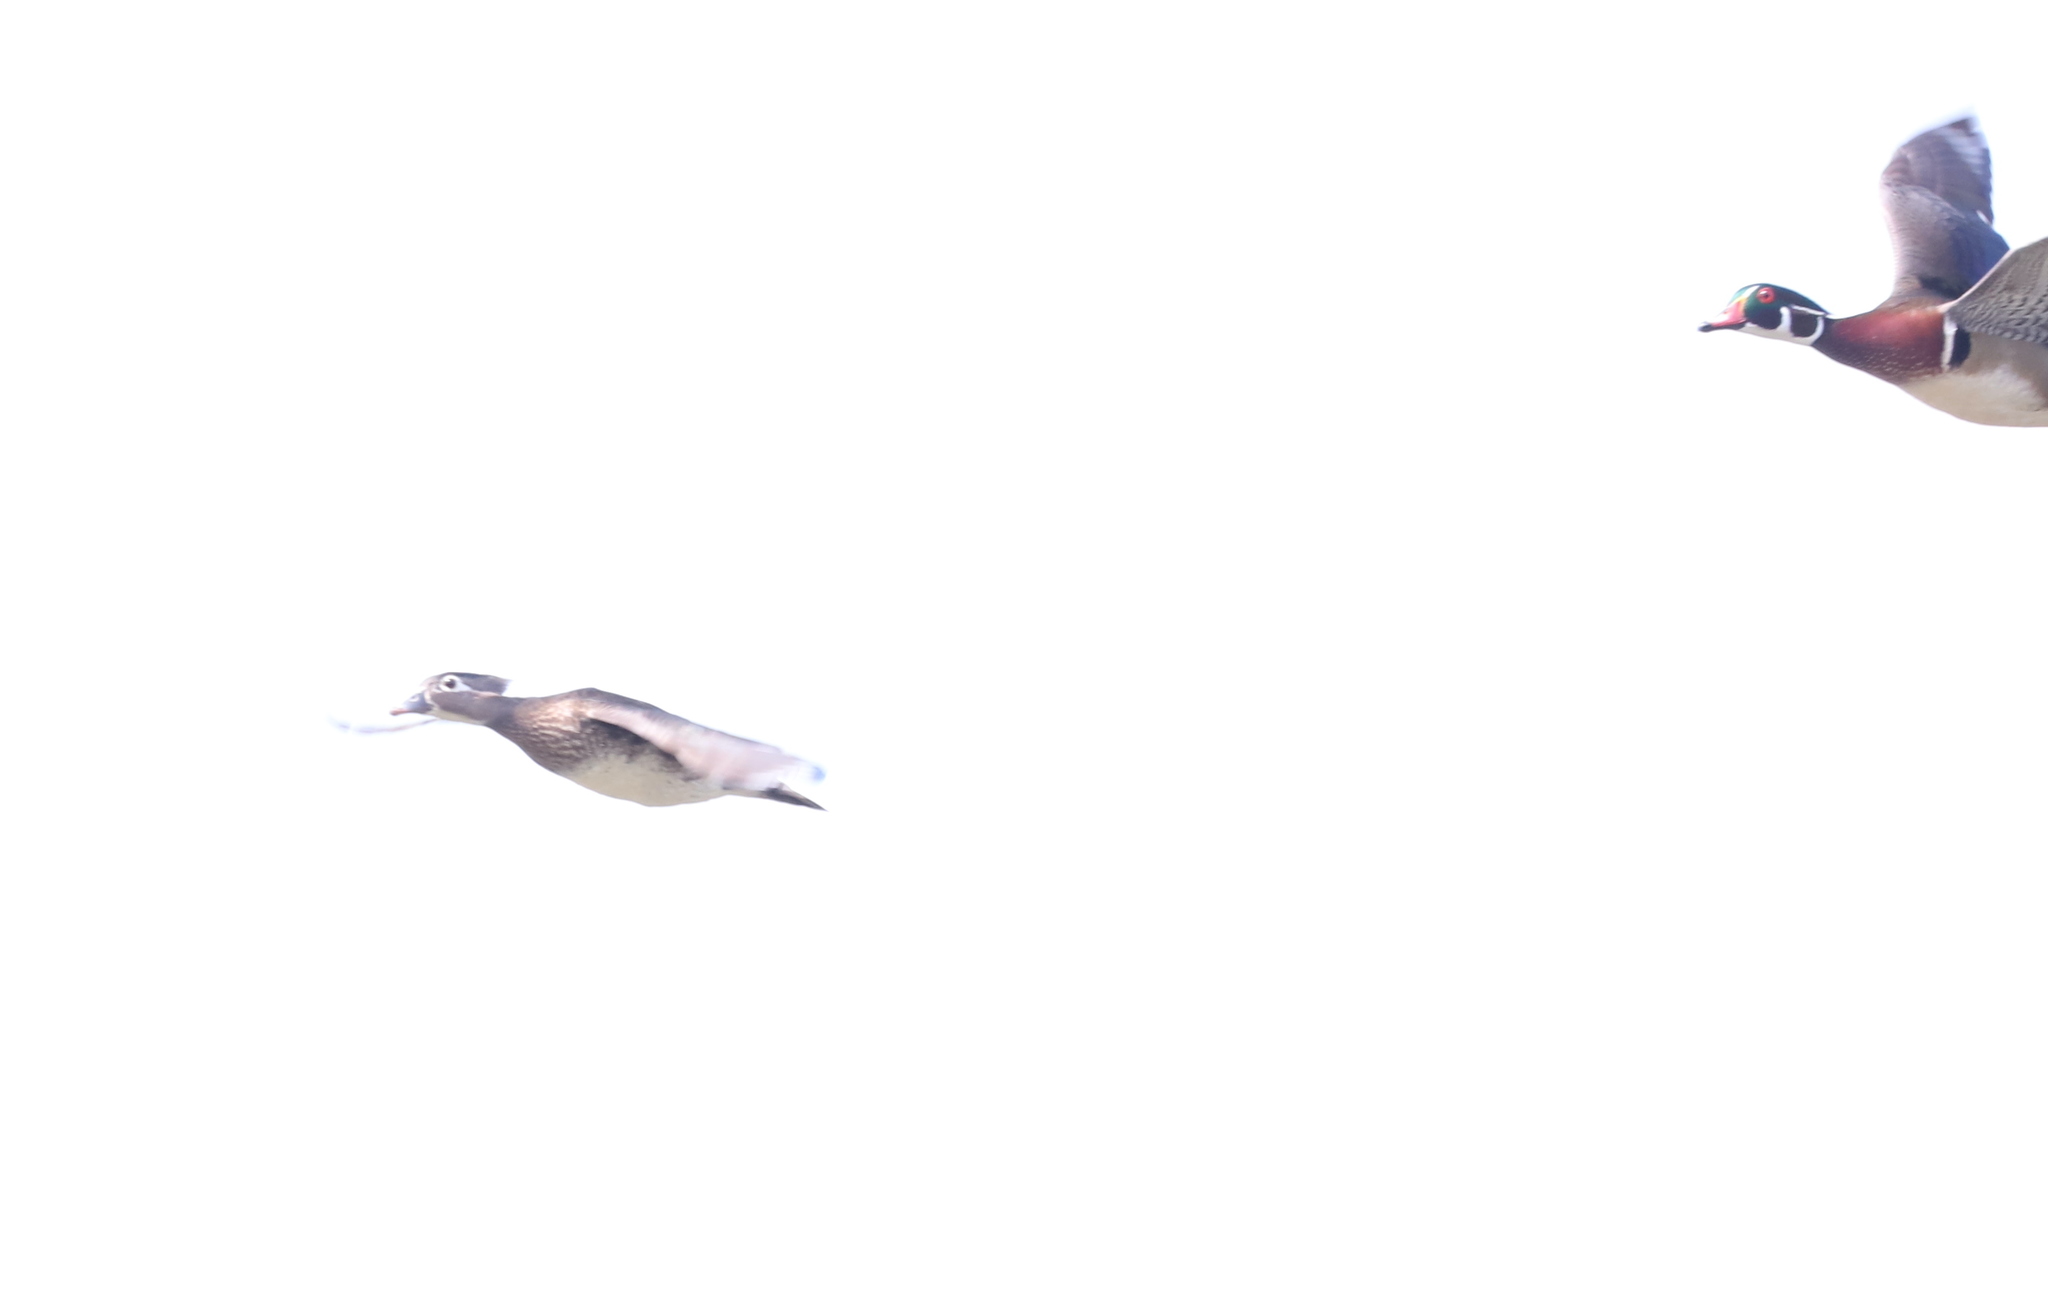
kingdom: Animalia
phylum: Chordata
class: Aves
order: Anseriformes
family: Anatidae
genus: Aix
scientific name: Aix sponsa
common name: Wood duck
